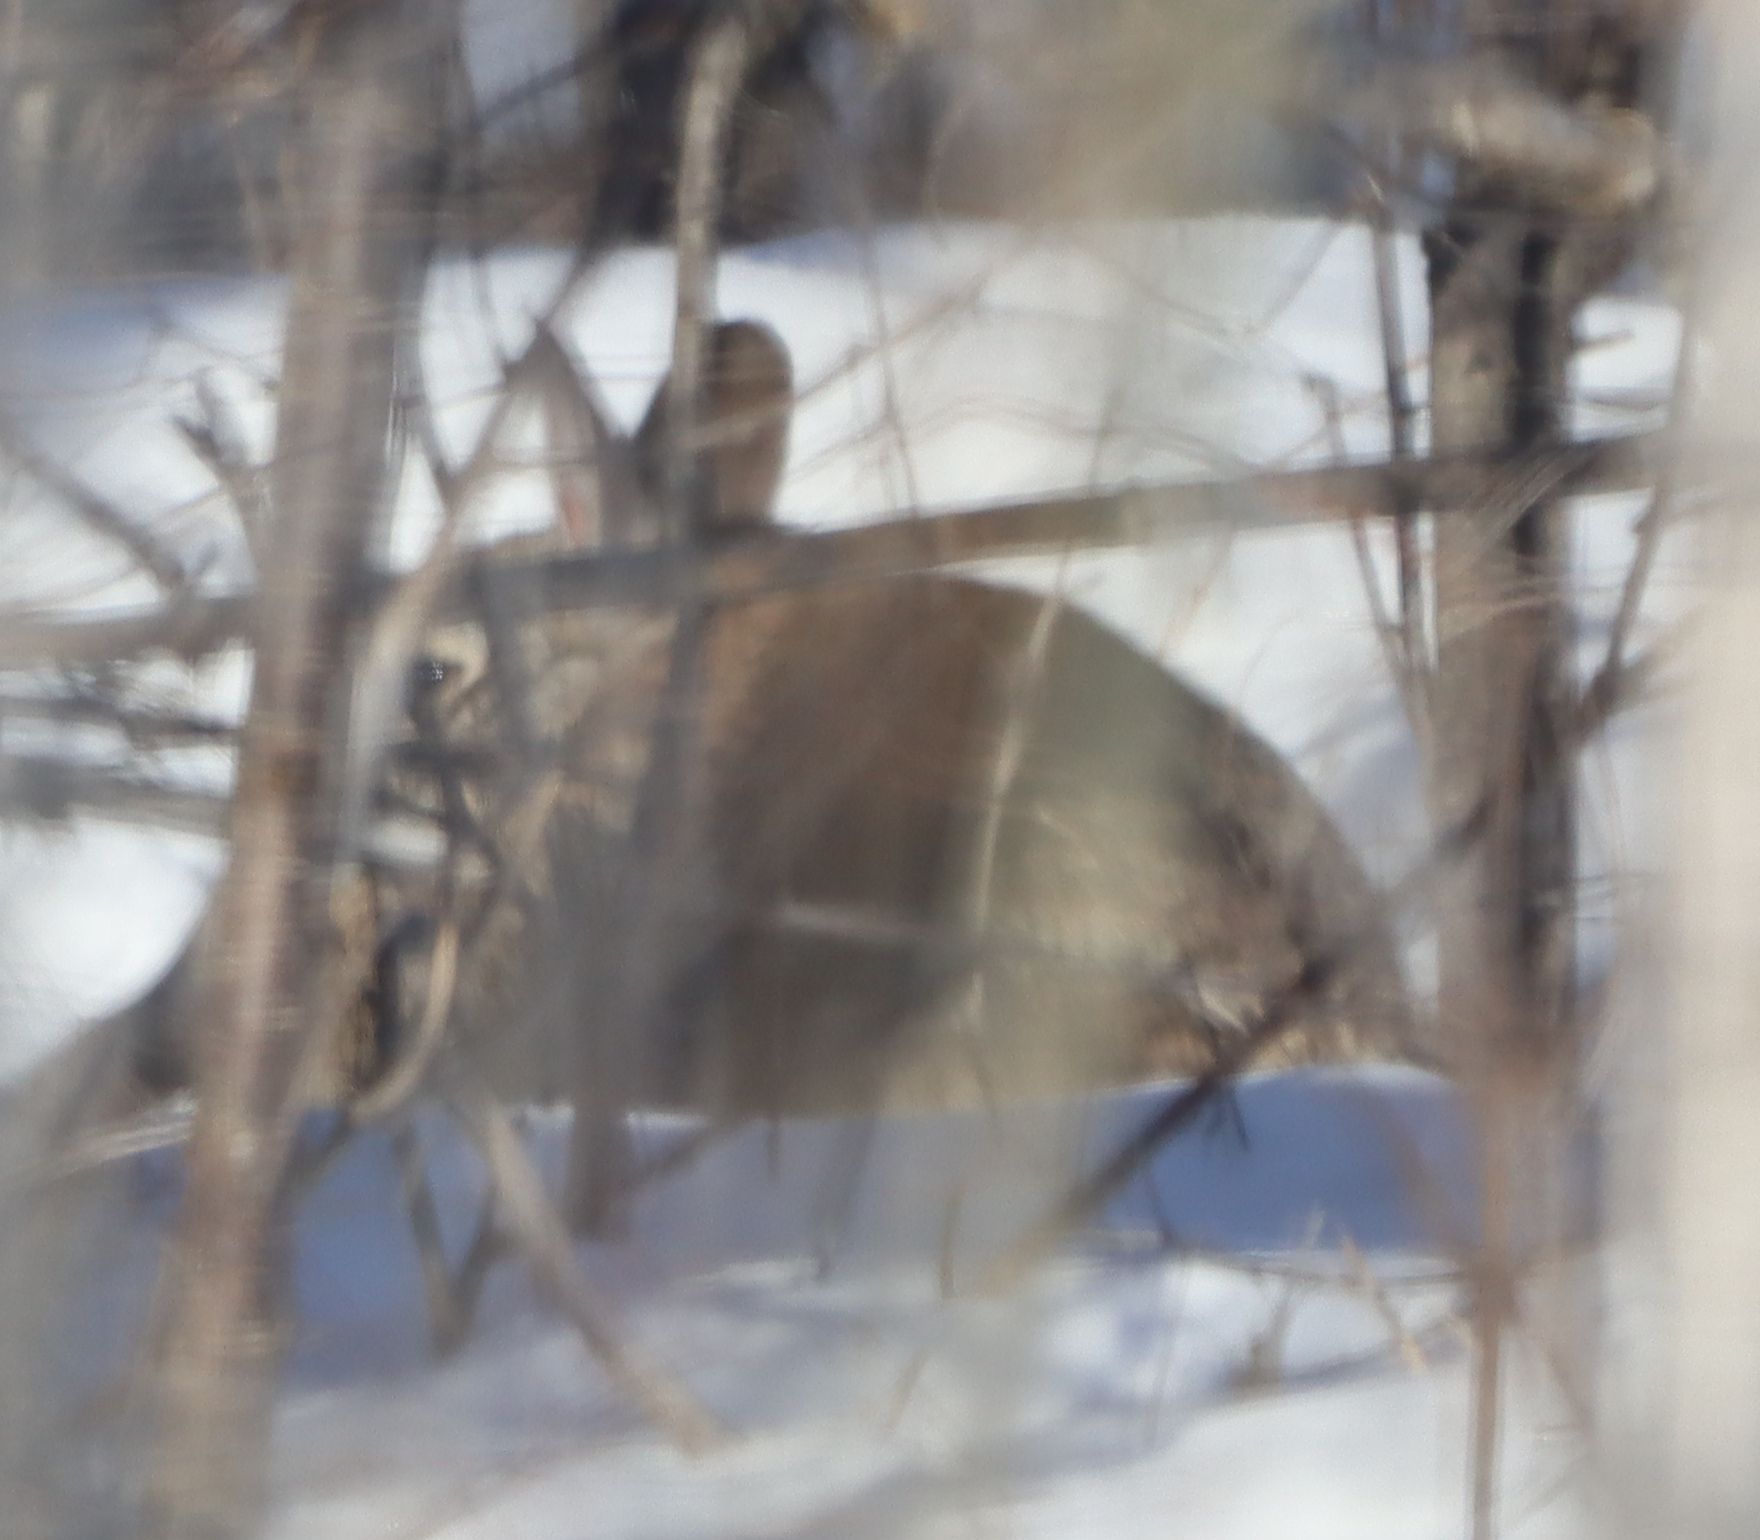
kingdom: Animalia
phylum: Chordata
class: Mammalia
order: Lagomorpha
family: Leporidae
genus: Sylvilagus
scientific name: Sylvilagus floridanus
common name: Eastern cottontail
